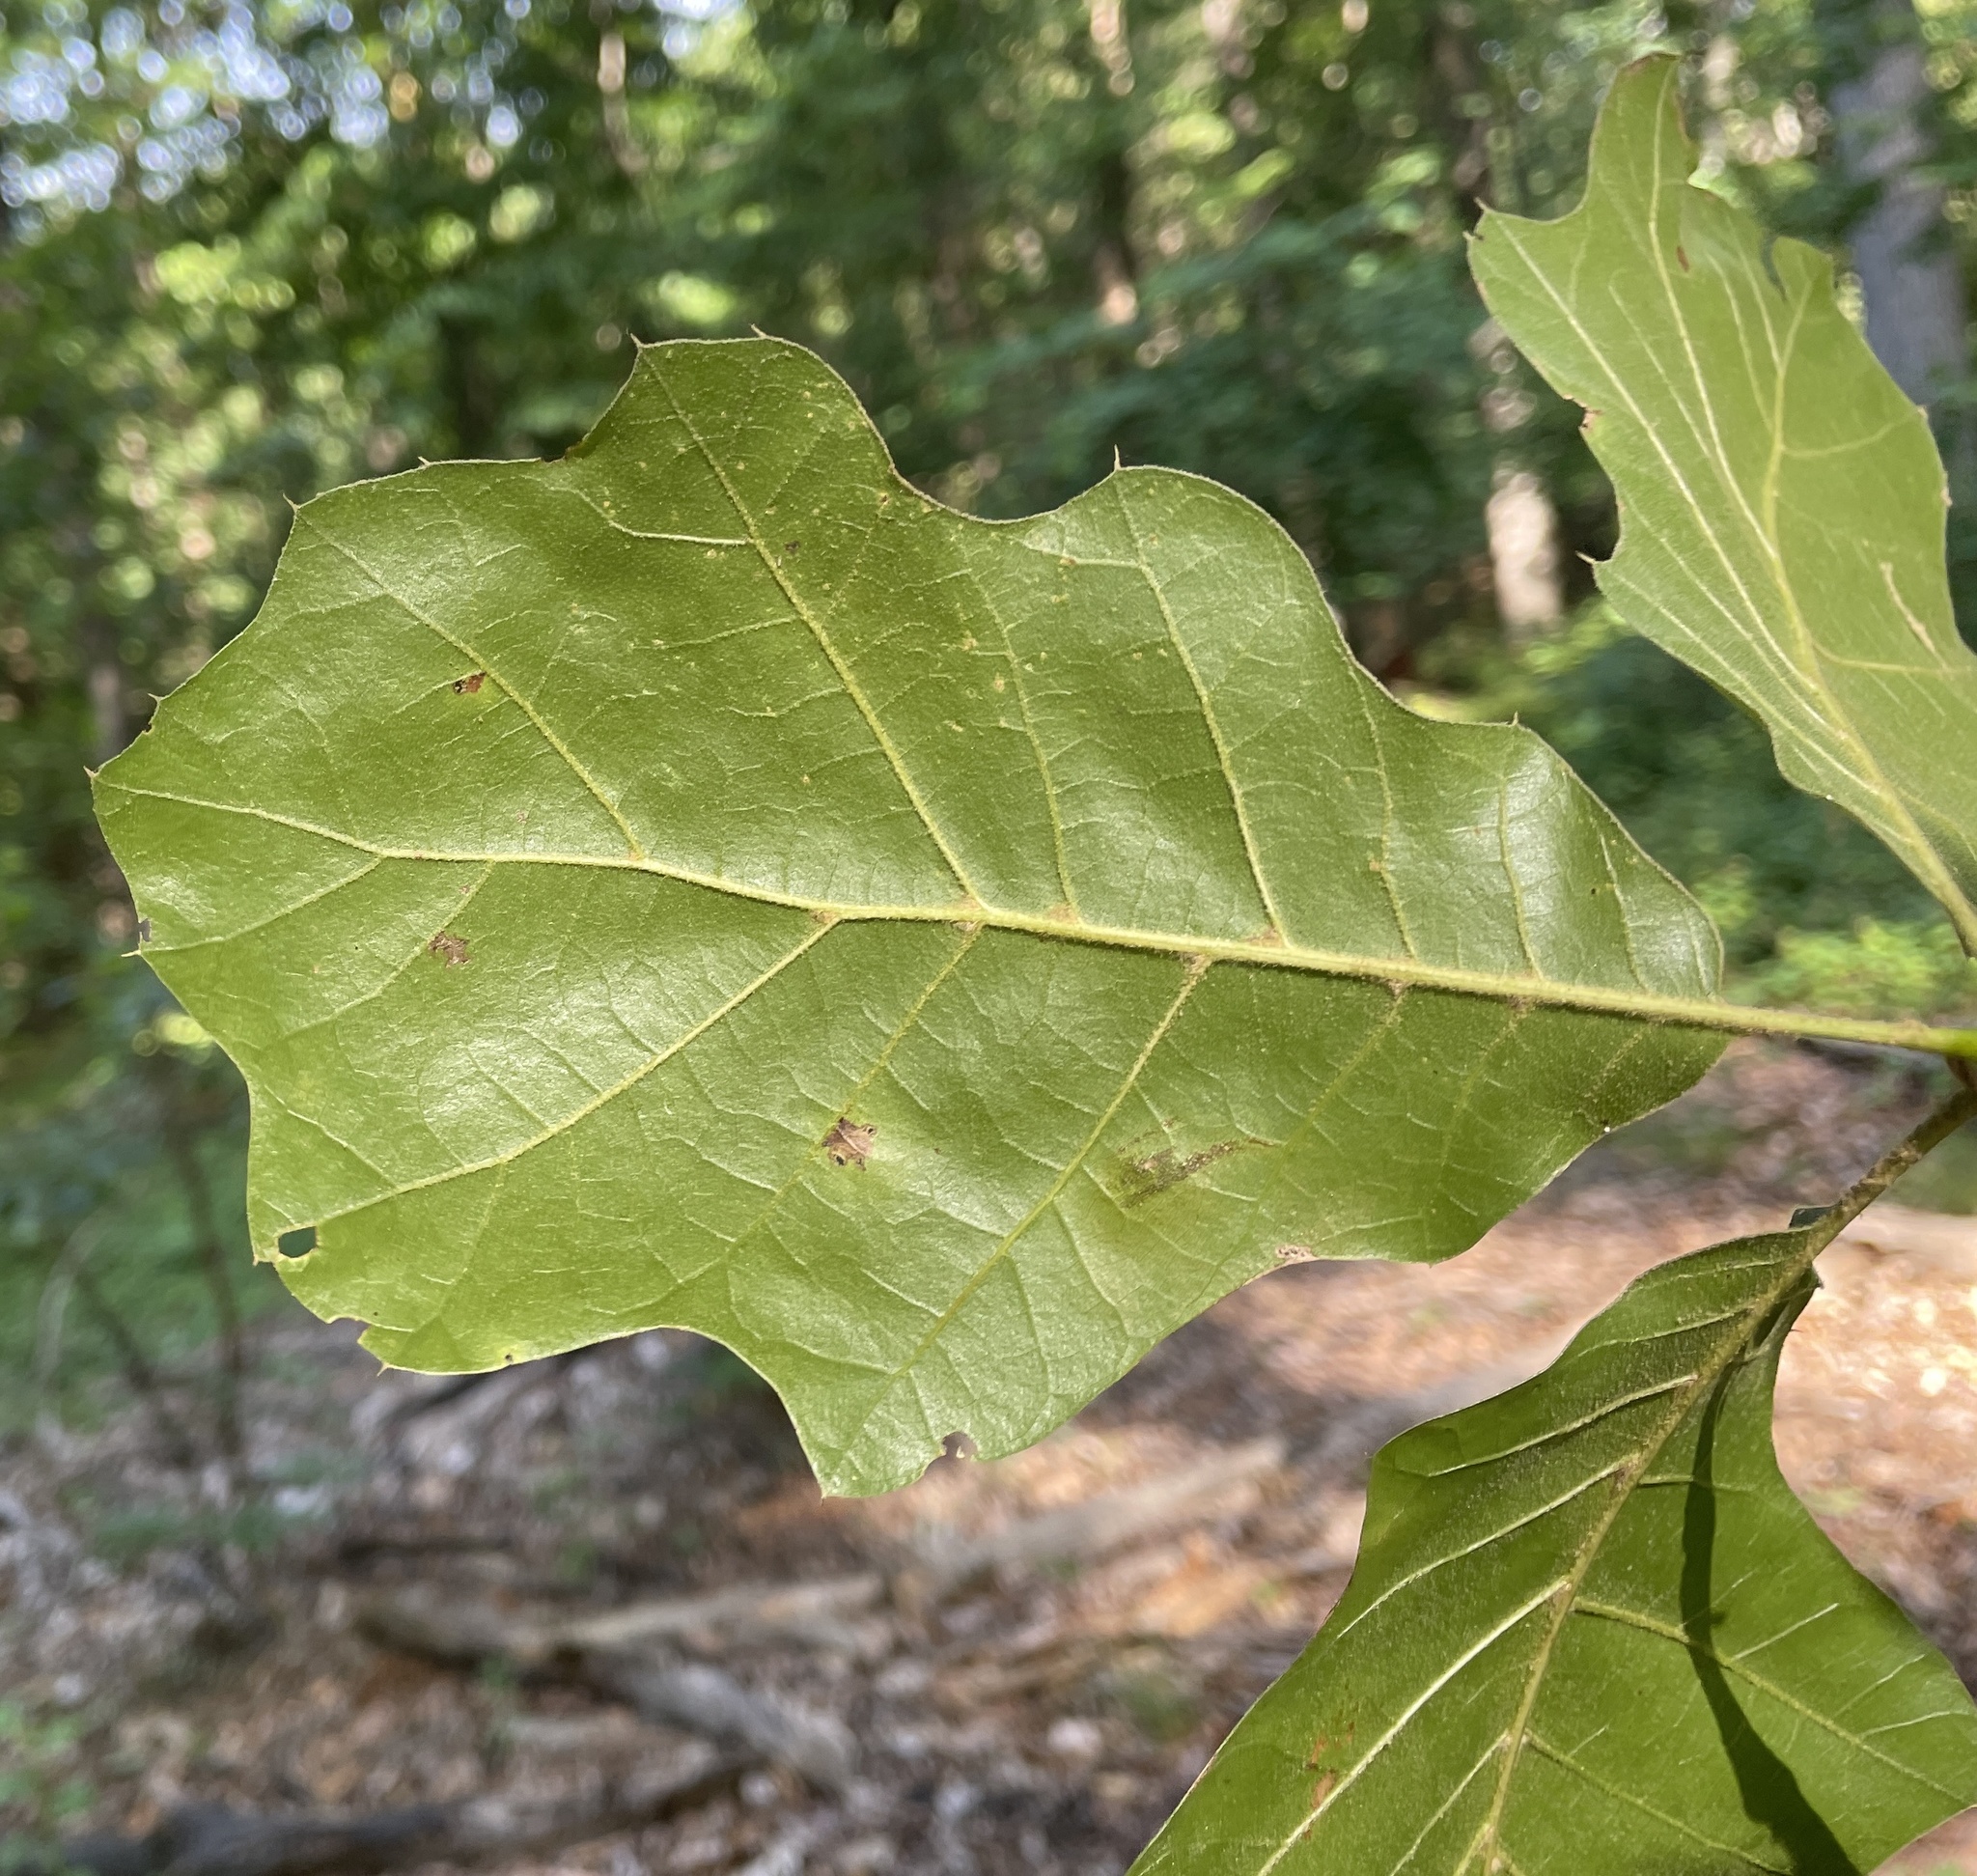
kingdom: Plantae
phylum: Tracheophyta
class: Magnoliopsida
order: Fagales
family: Fagaceae
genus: Quercus
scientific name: Quercus velutina
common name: Black oak
